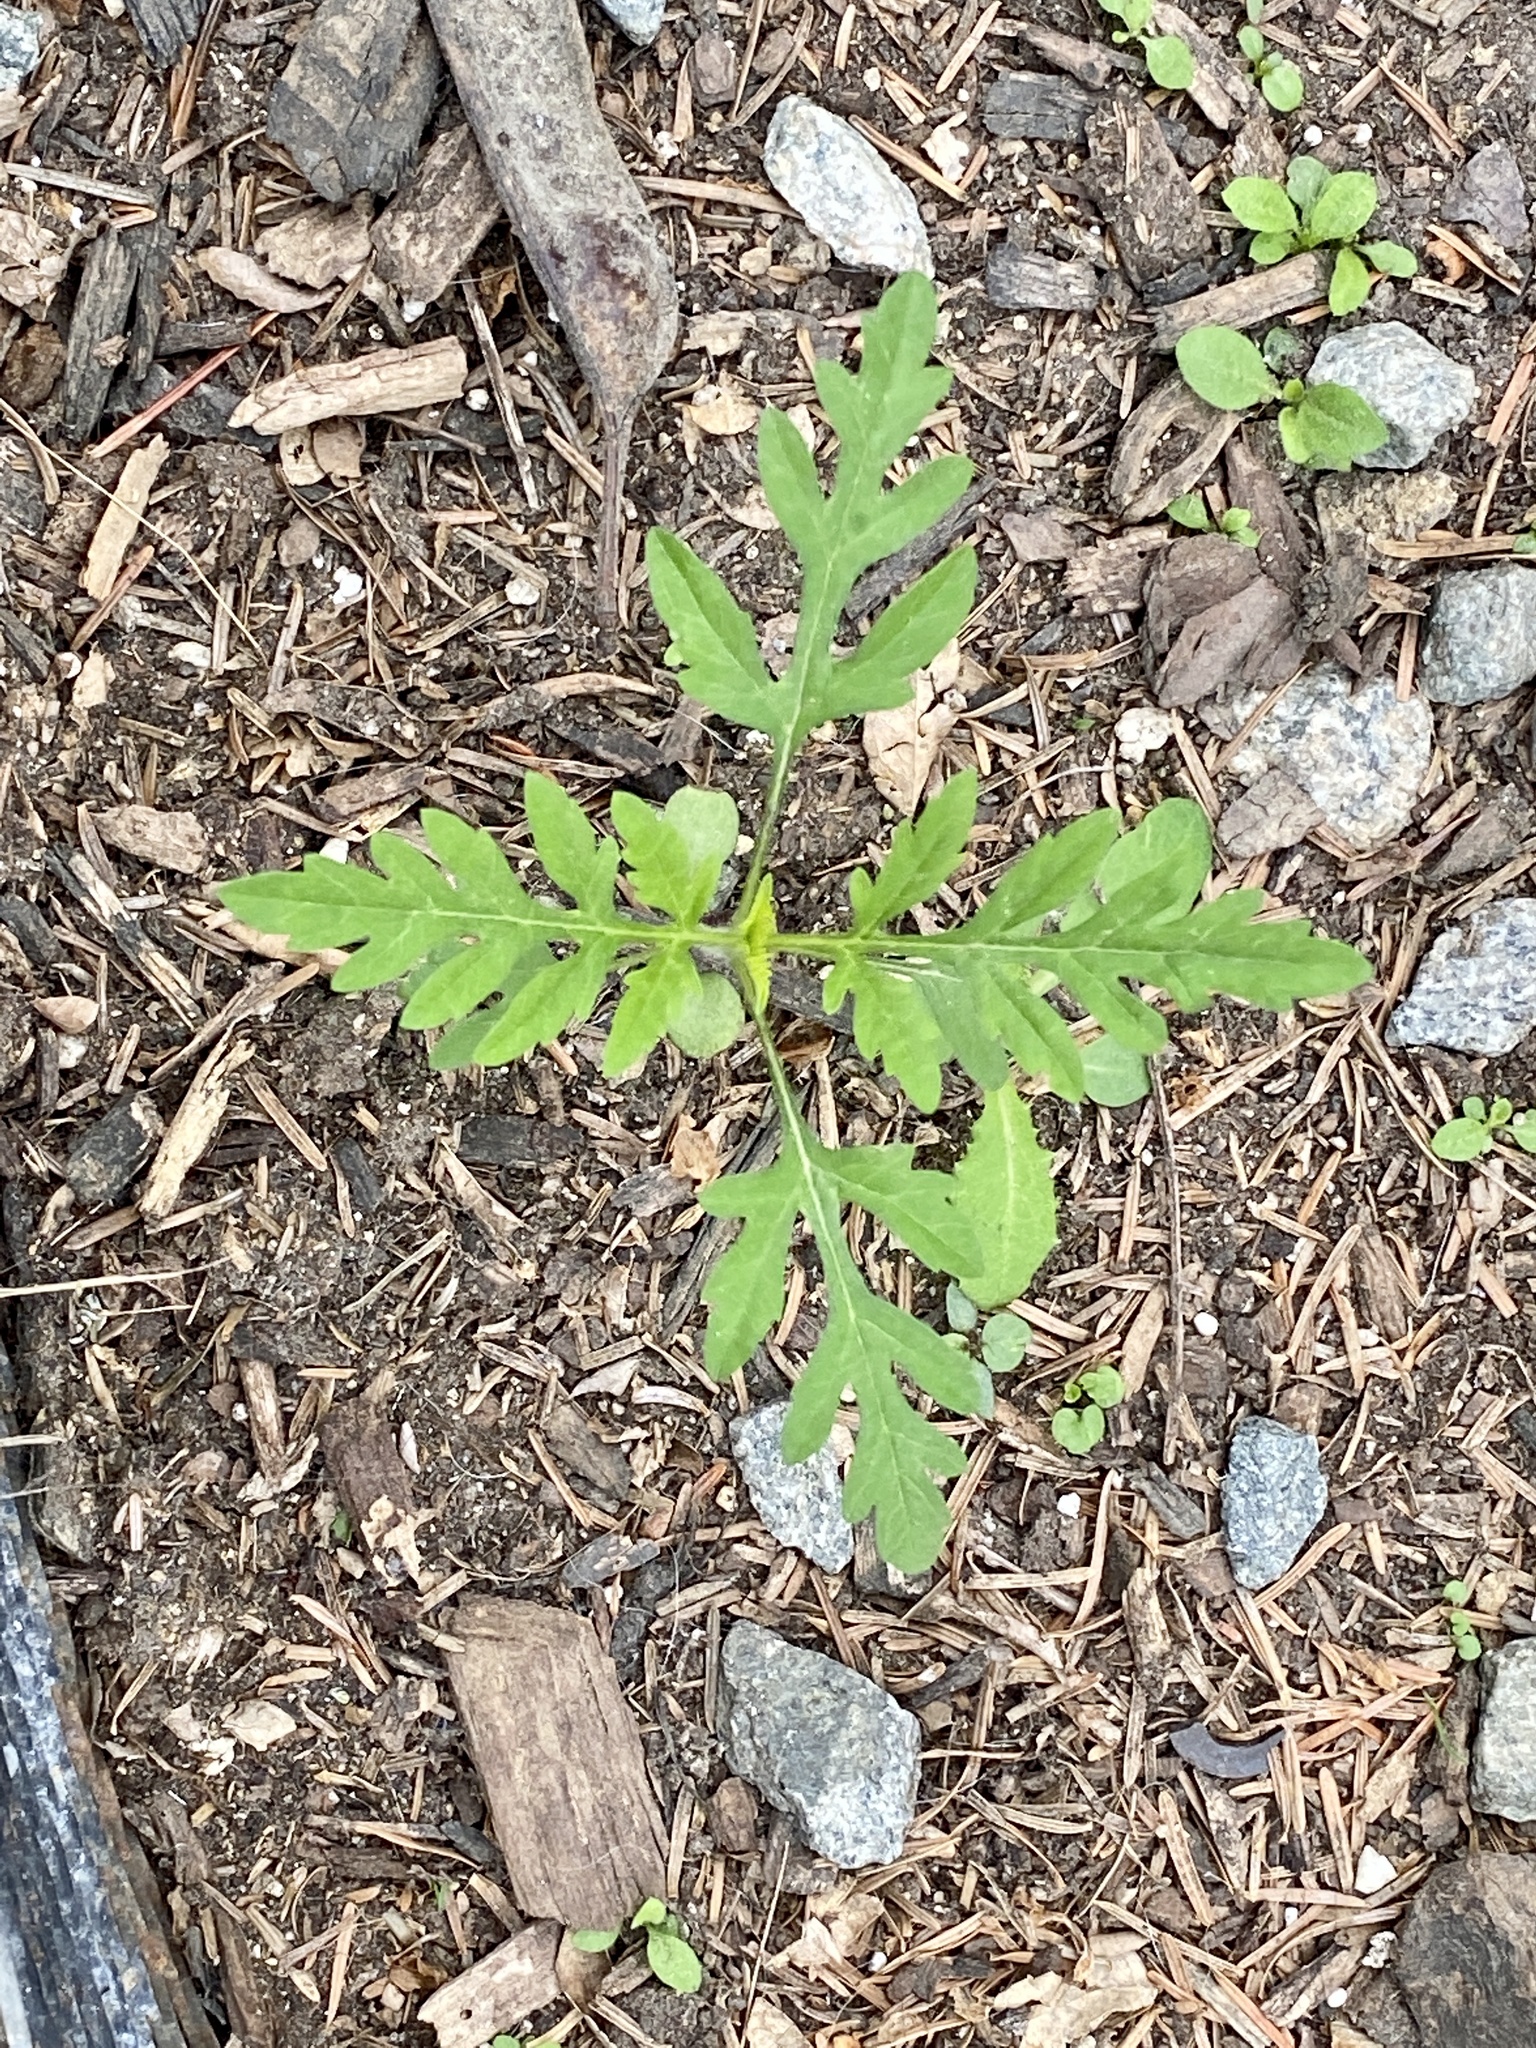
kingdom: Plantae
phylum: Tracheophyta
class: Magnoliopsida
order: Asterales
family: Asteraceae
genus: Ambrosia
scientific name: Ambrosia artemisiifolia
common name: Annual ragweed
